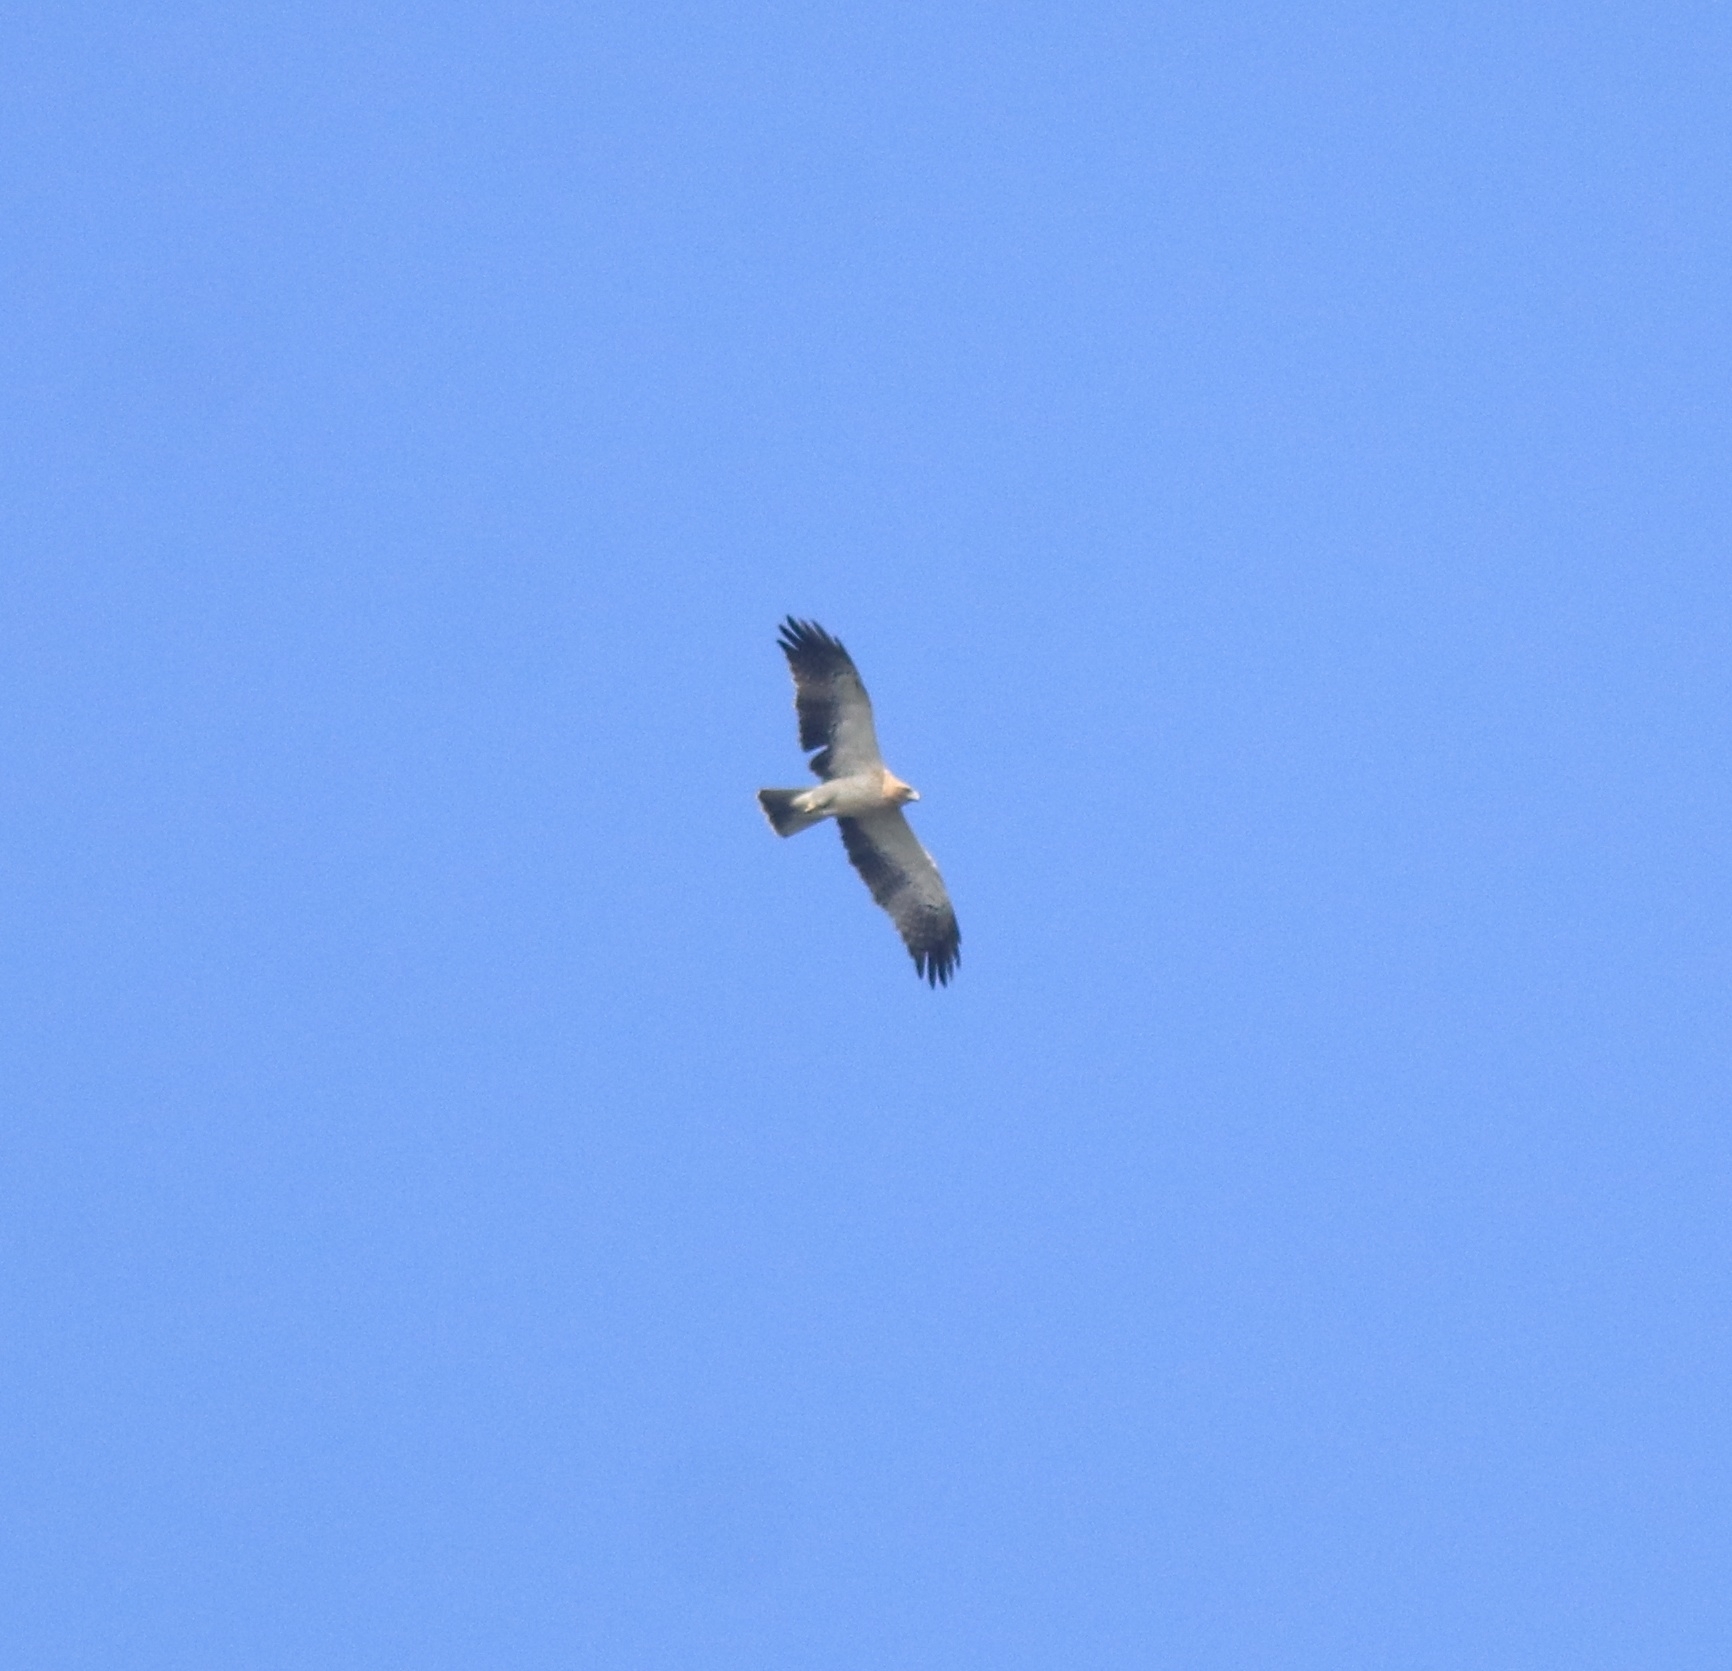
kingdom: Animalia
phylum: Chordata
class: Aves
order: Accipitriformes
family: Accipitridae
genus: Hieraaetus
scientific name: Hieraaetus pennatus
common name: Booted eagle
